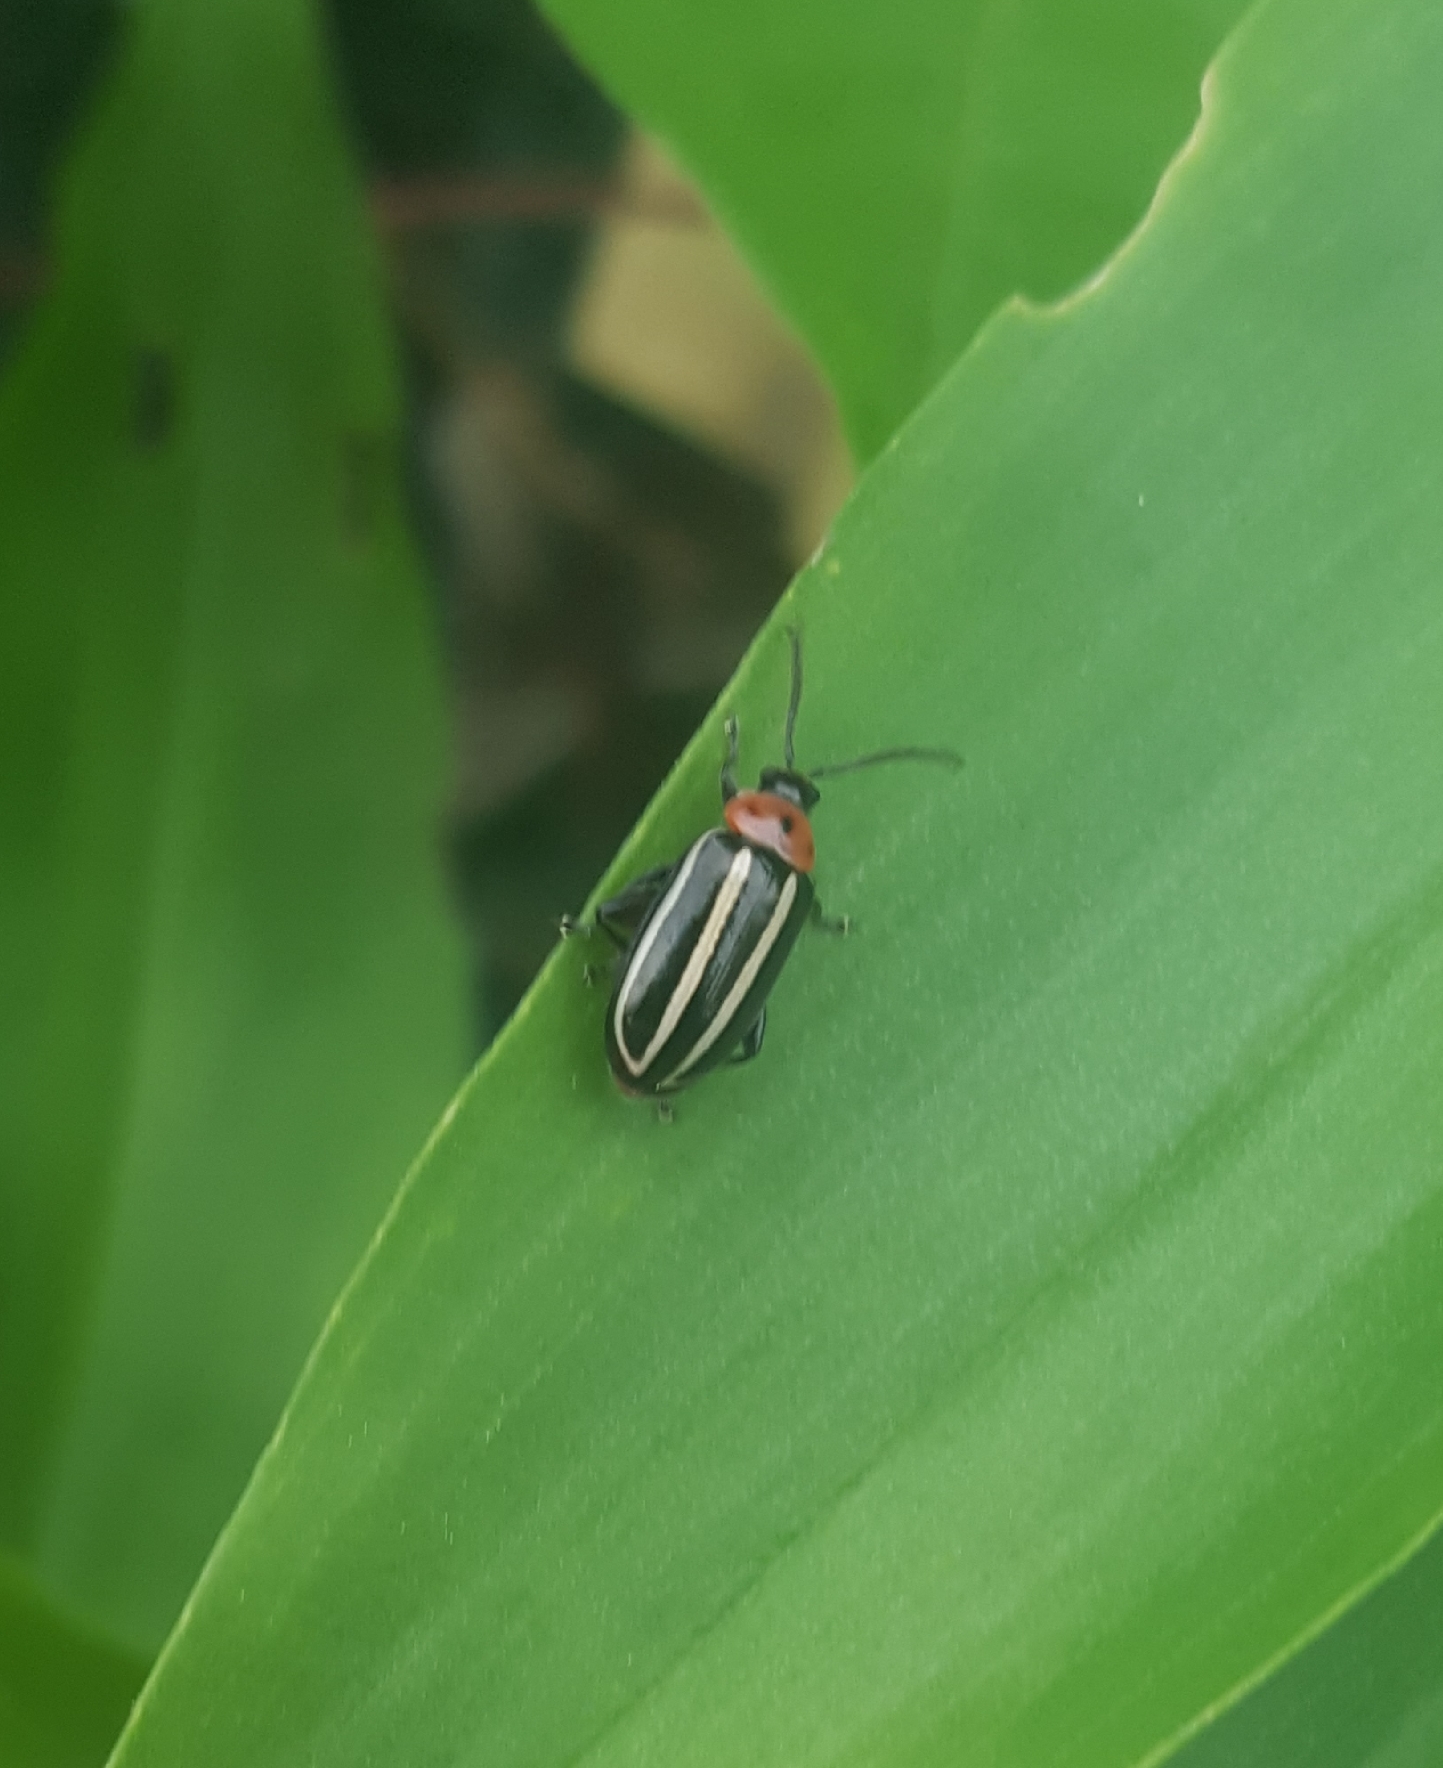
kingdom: Animalia
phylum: Arthropoda
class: Insecta
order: Coleoptera
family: Chrysomelidae
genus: Disonycha
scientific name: Disonycha glabrata
